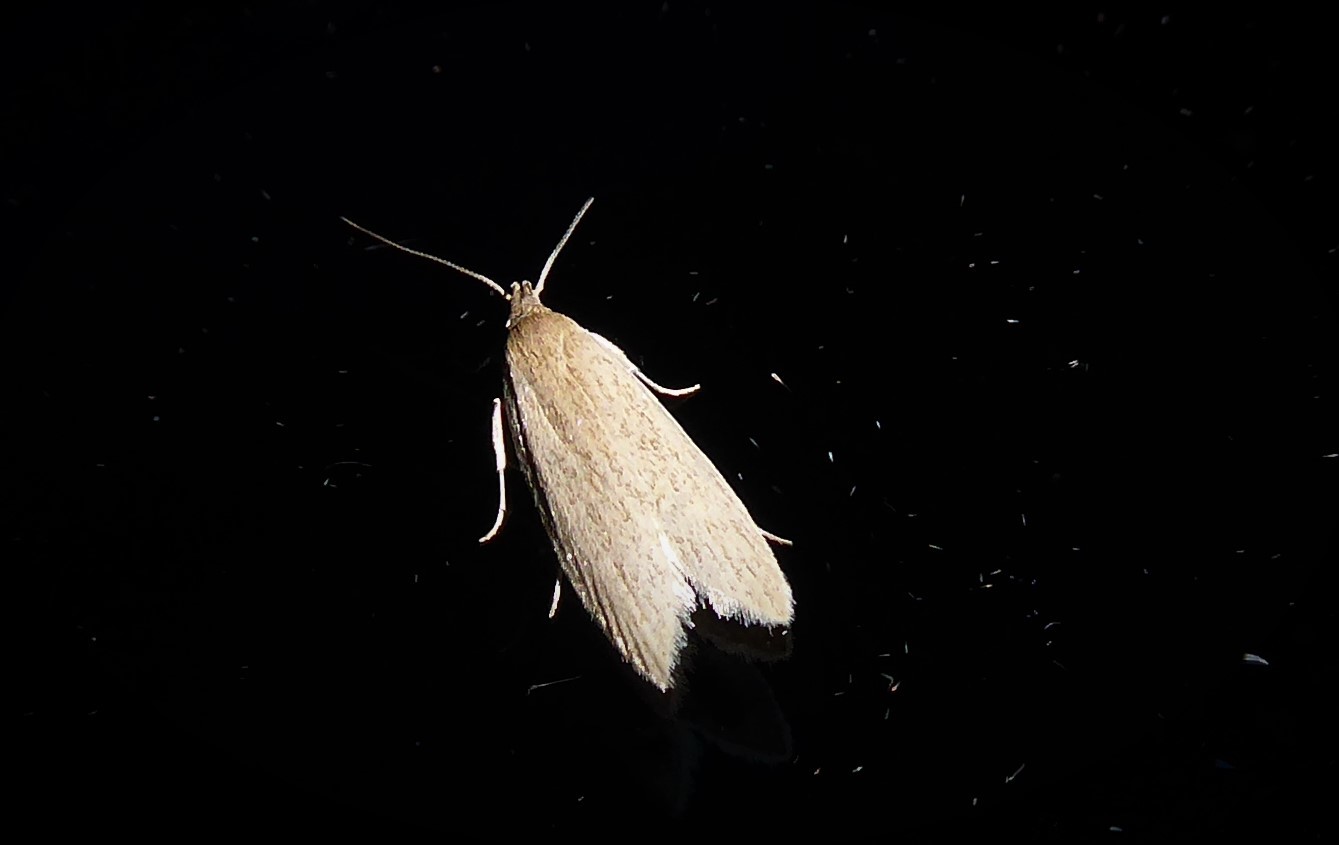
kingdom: Animalia
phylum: Arthropoda
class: Insecta
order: Lepidoptera
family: Xyloryctidae
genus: Scieropepla
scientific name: Scieropepla typhicola
